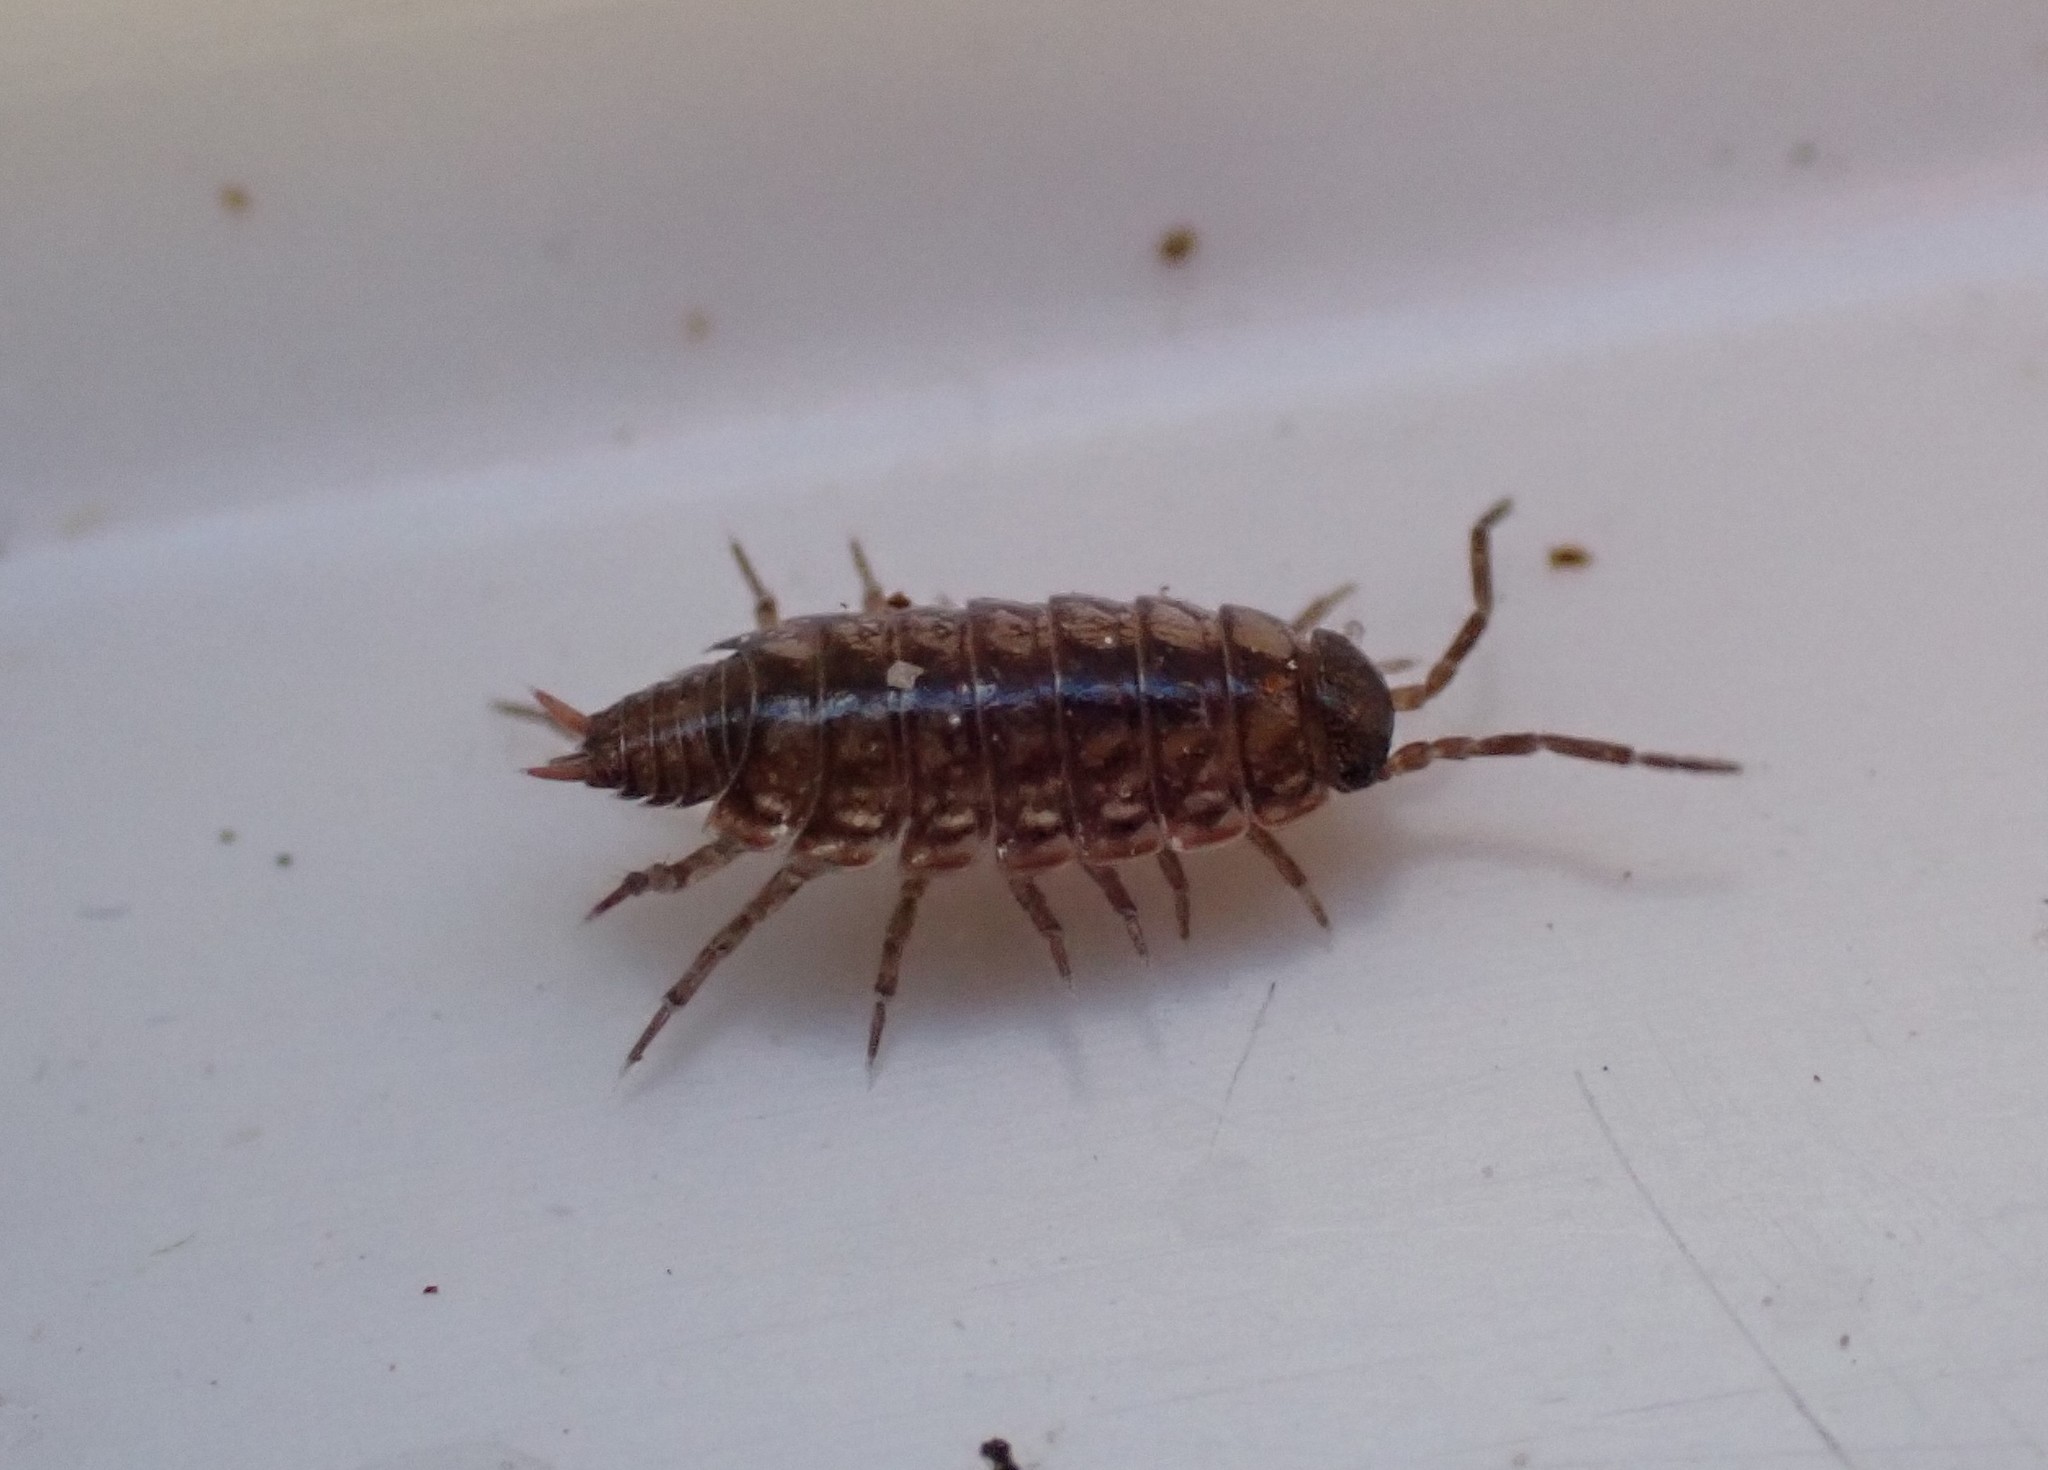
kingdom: Animalia
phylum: Arthropoda
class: Malacostraca
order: Isopoda
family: Philosciidae
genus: Philoscia
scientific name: Philoscia muscorum
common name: Common striped woodlouse
